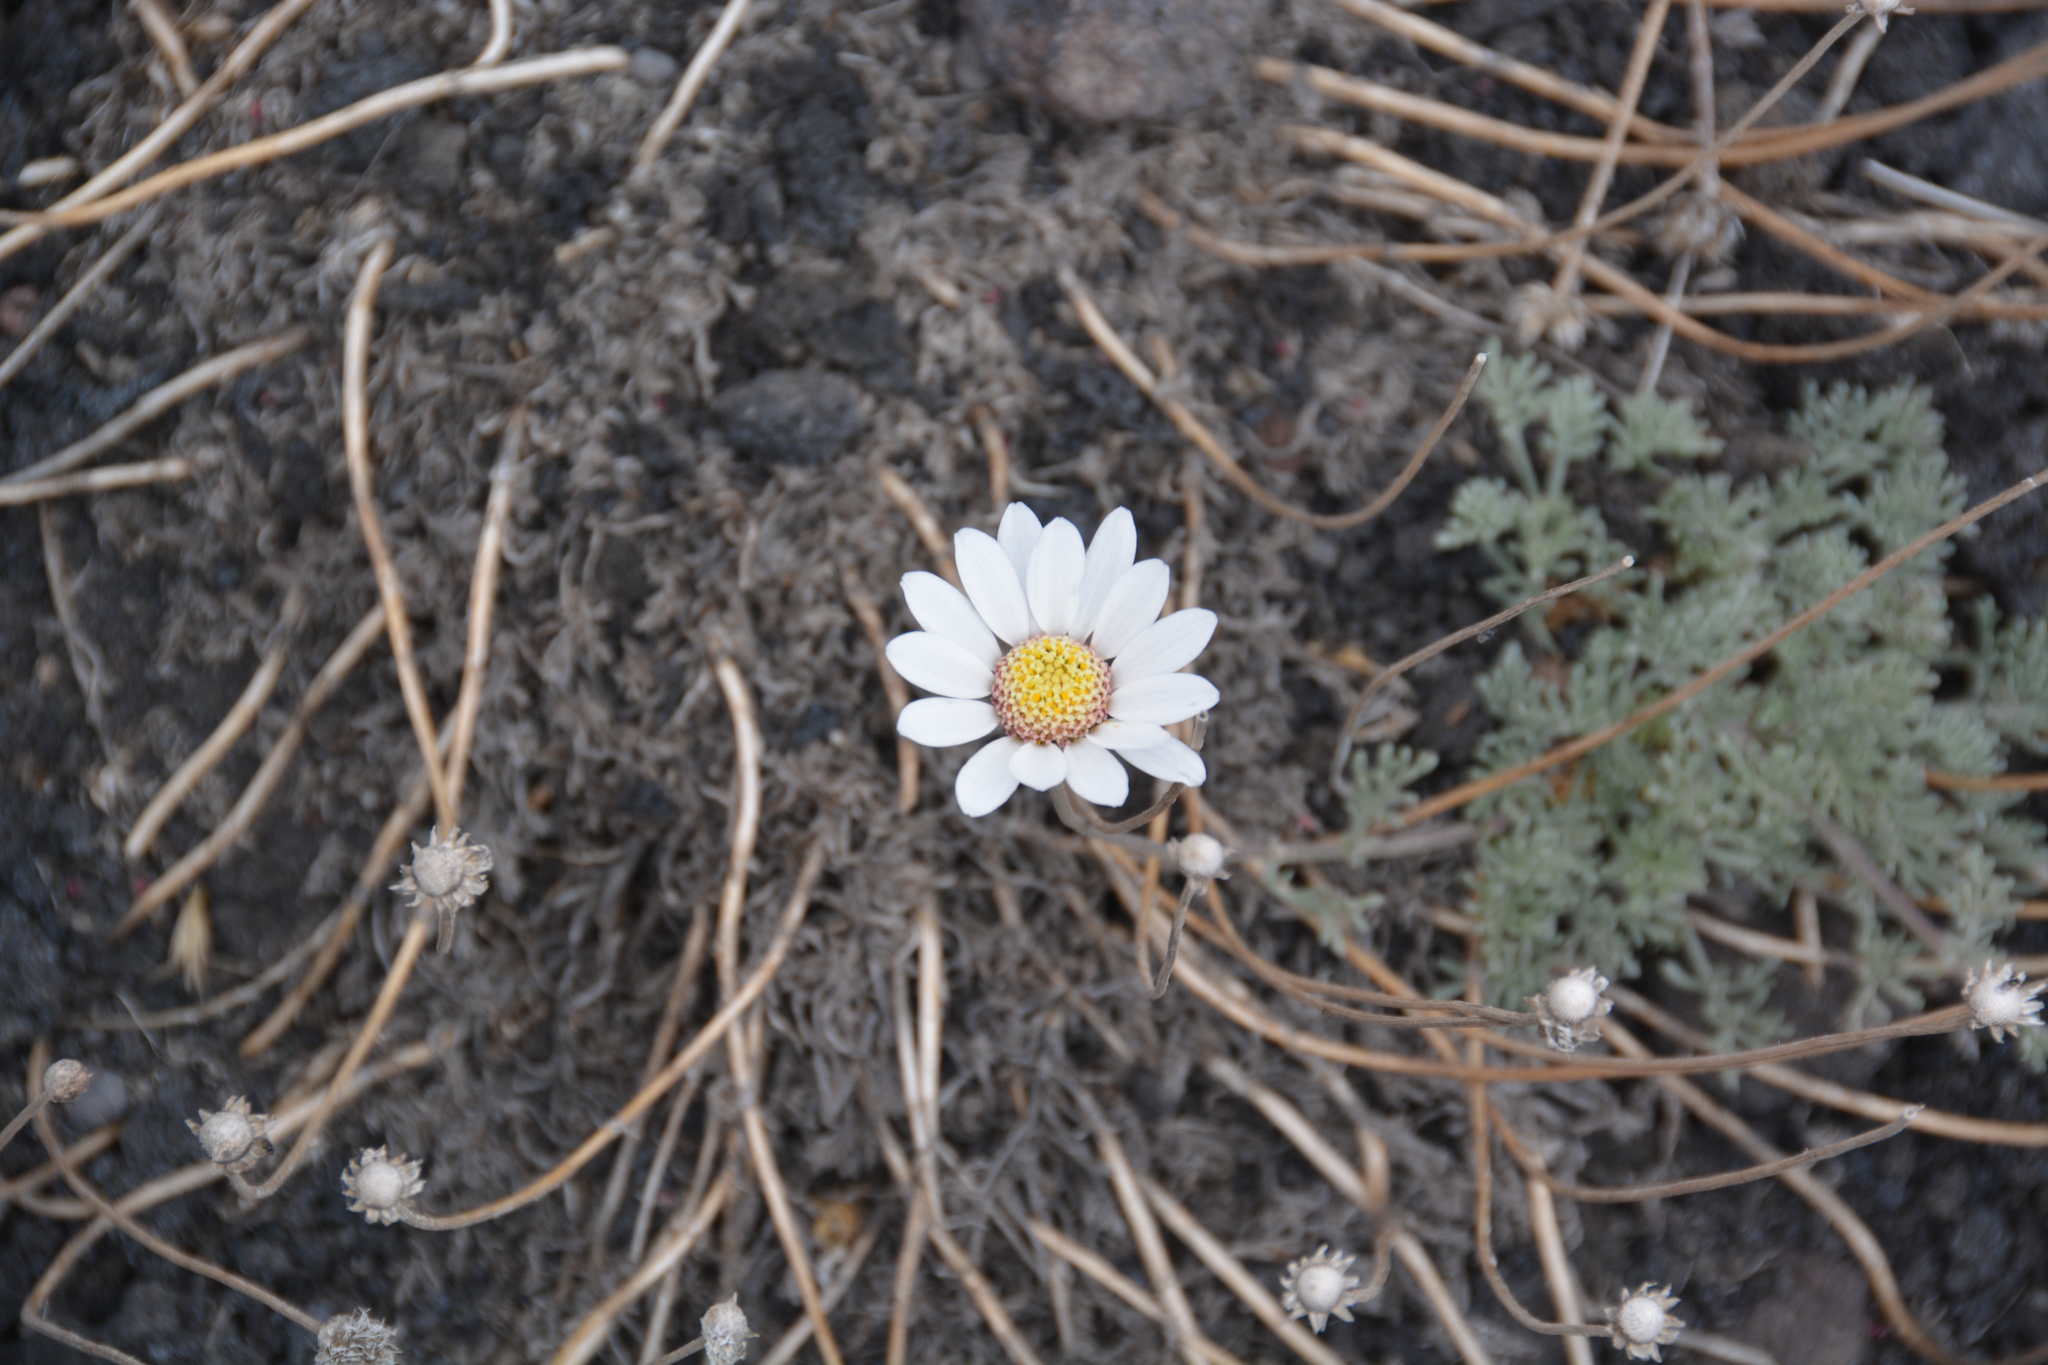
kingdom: Plantae
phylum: Tracheophyta
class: Magnoliopsida
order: Asterales
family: Asteraceae
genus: Anthemis
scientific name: Anthemis aetnensis
